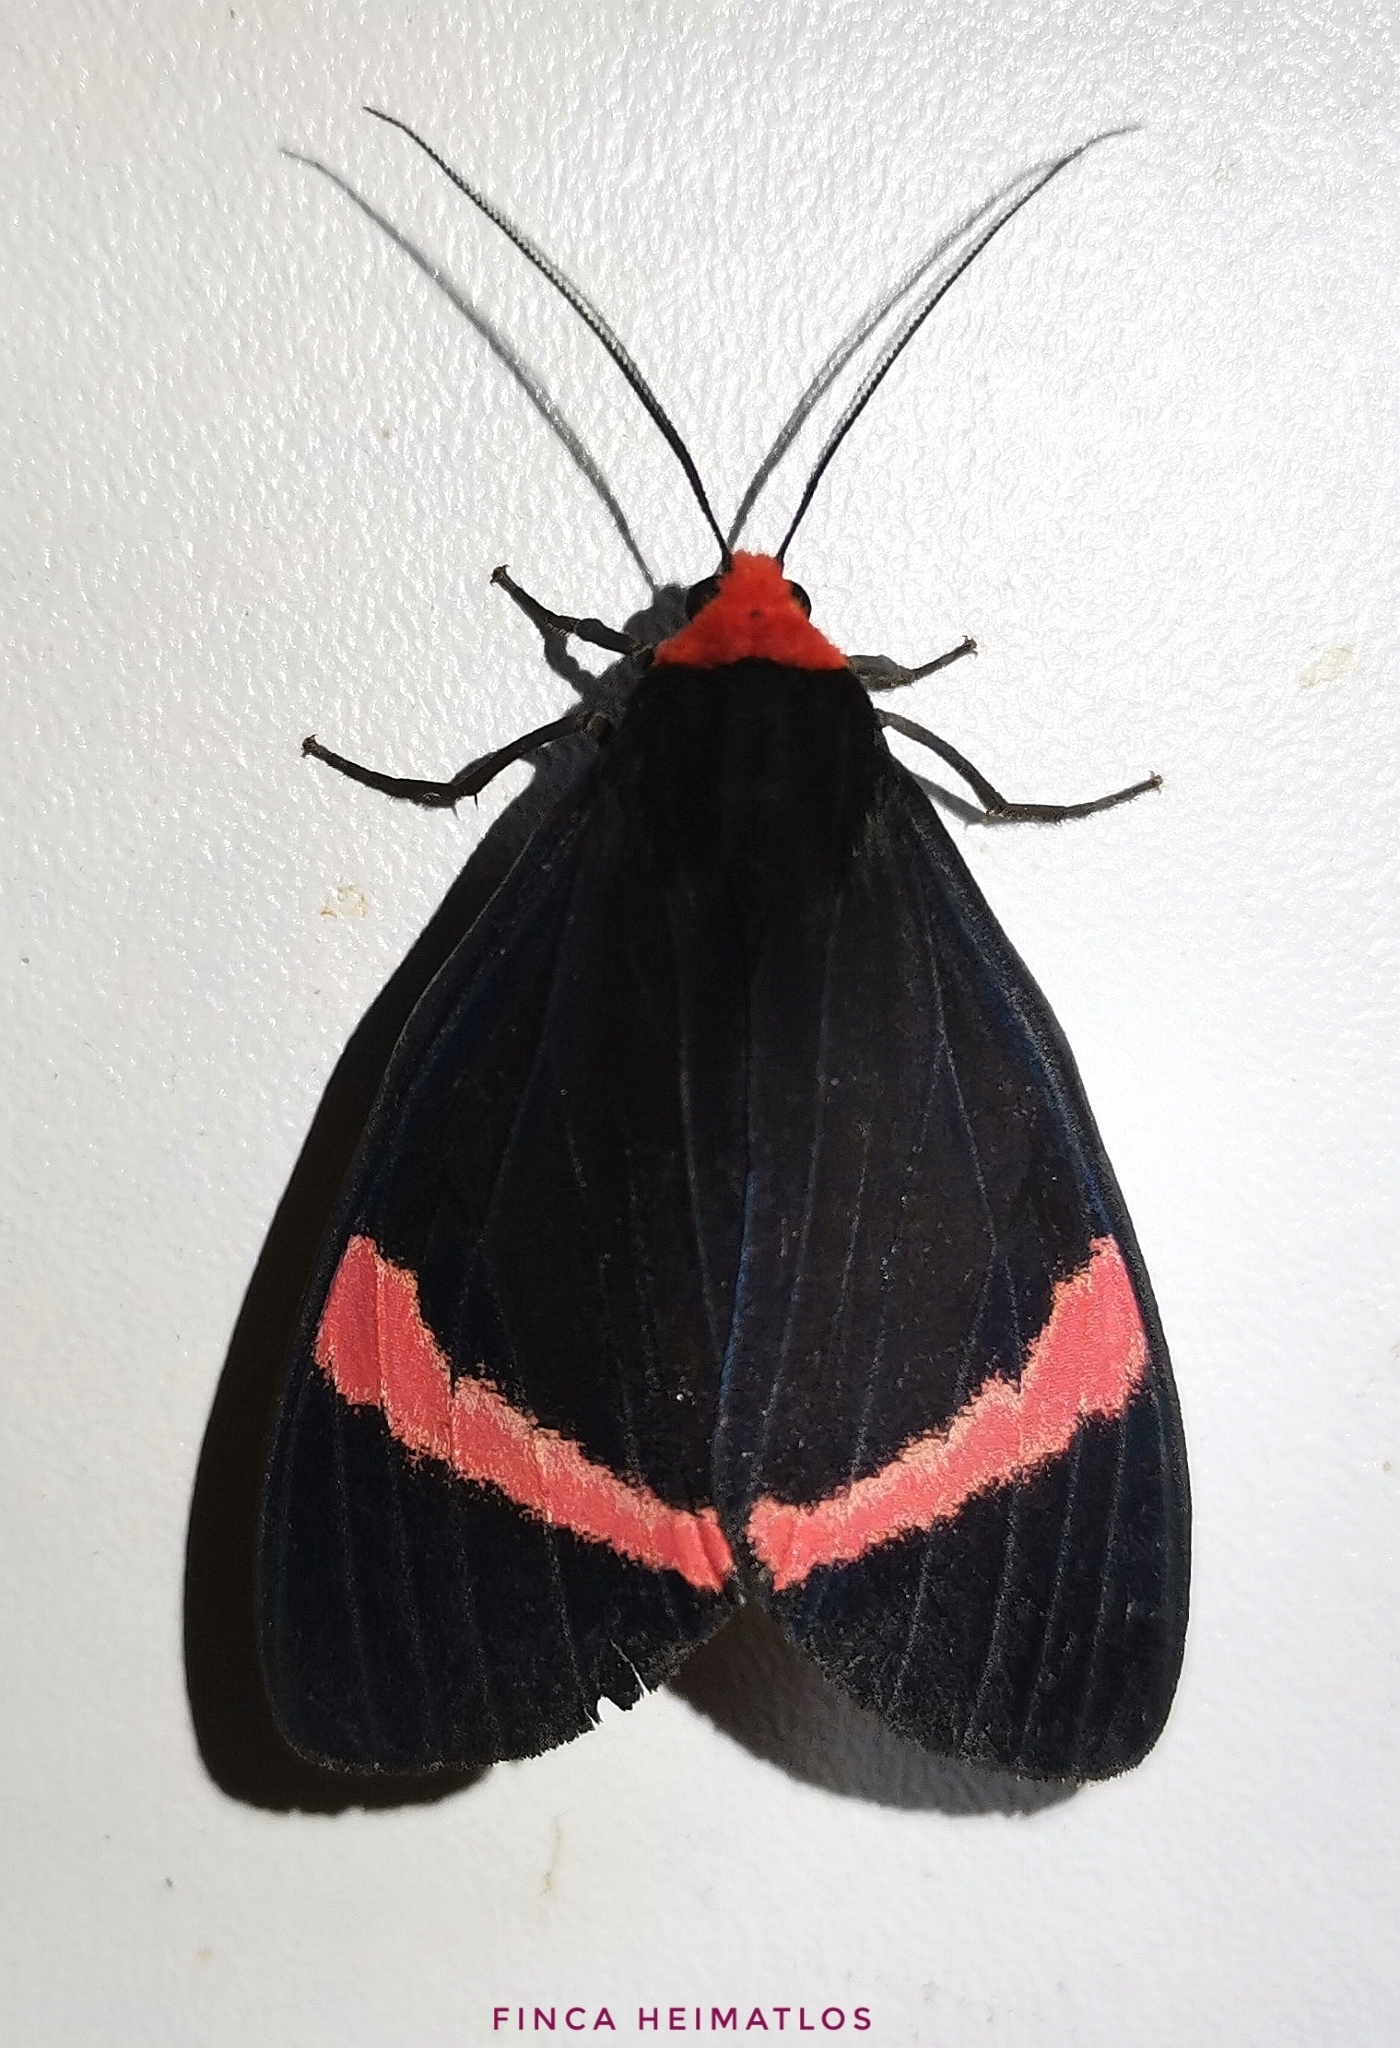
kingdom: Animalia
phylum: Arthropoda
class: Insecta
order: Lepidoptera
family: Erebidae
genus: Coreura
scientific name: Coreura simsoni
